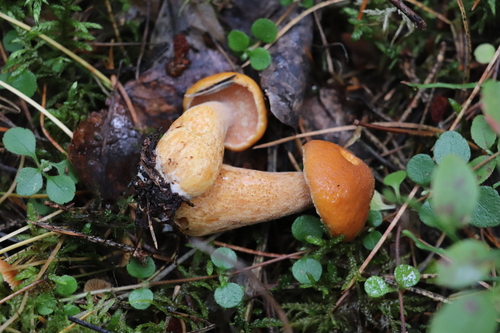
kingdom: Fungi
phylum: Basidiomycota
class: Agaricomycetes
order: Boletales
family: Suillaceae
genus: Suillus
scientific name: Suillus punctipes
